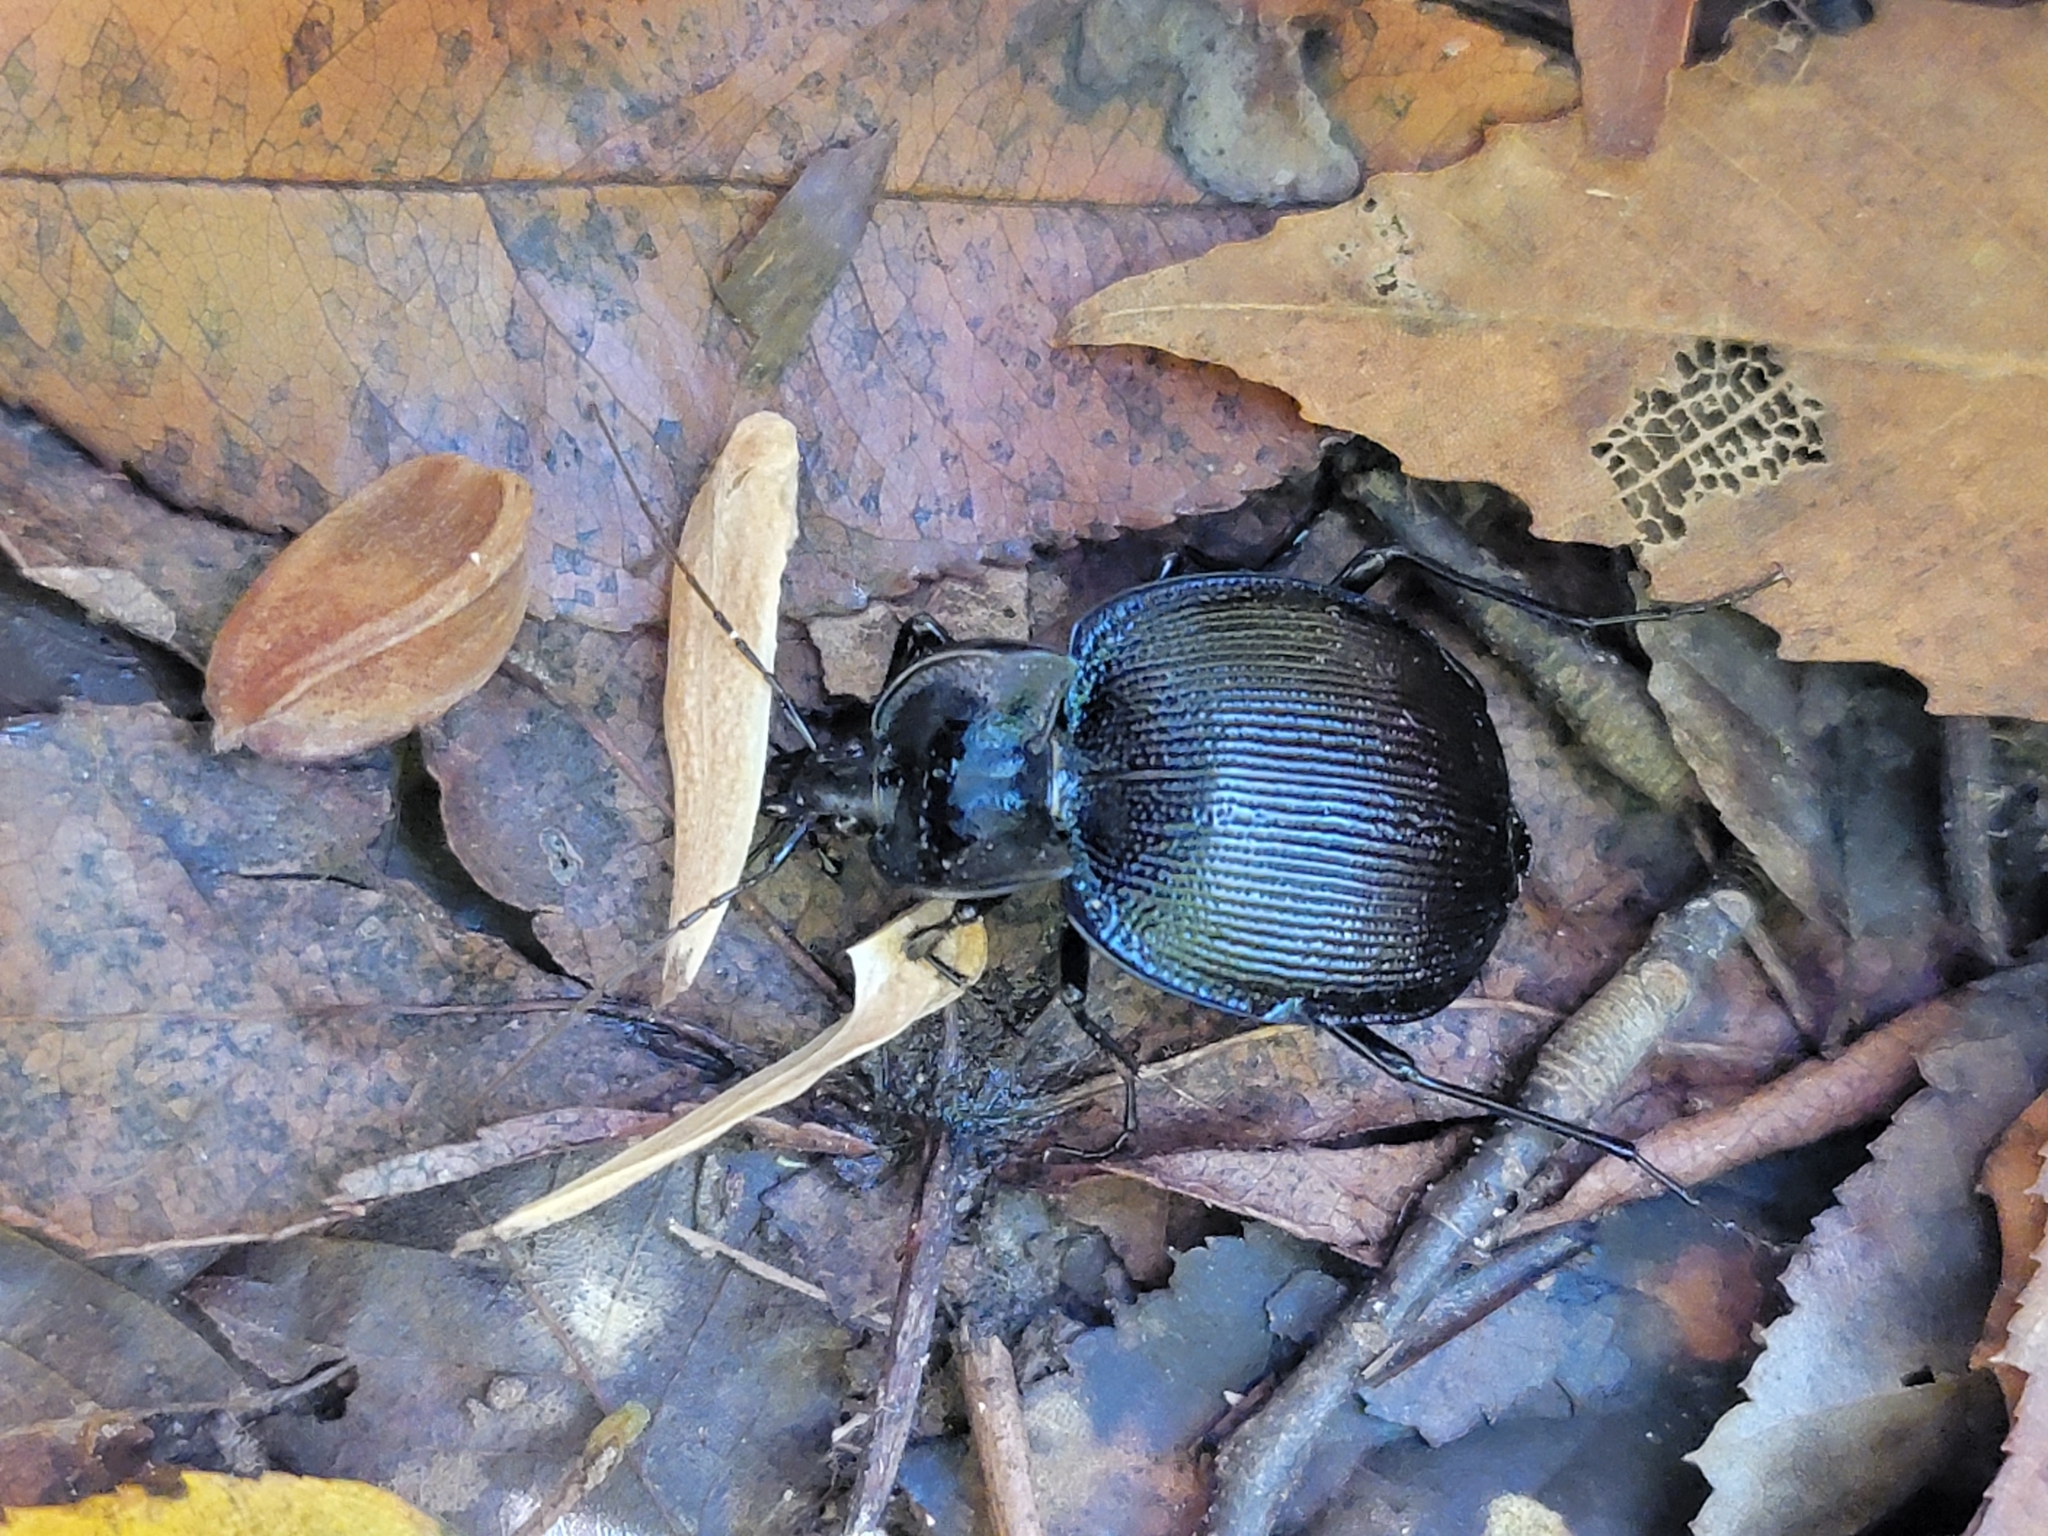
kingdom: Animalia
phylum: Arthropoda
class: Insecta
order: Coleoptera
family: Carabidae
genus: Scaphinotus
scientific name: Scaphinotus unicolor
